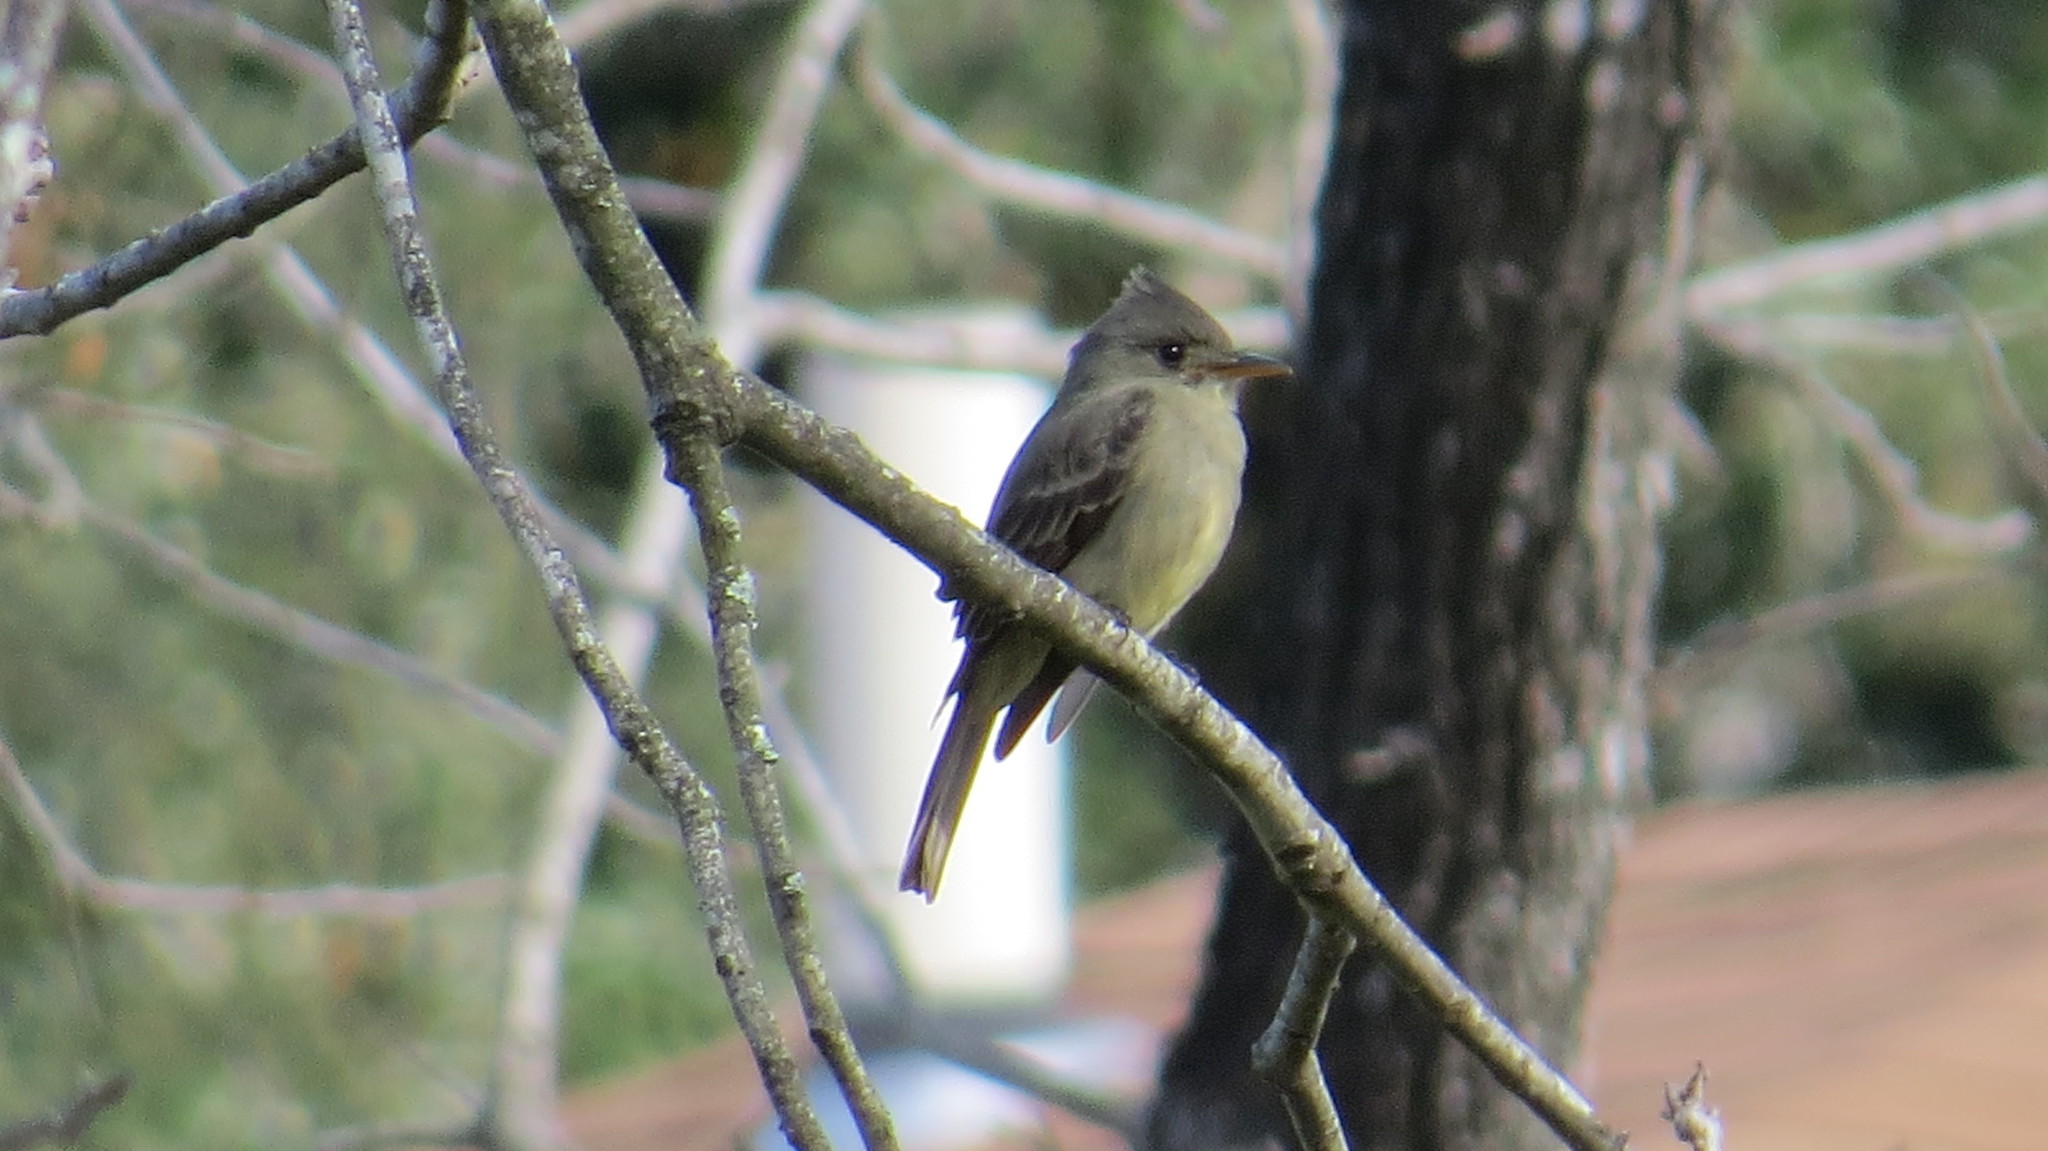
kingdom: Animalia
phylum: Chordata
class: Aves
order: Passeriformes
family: Tyrannidae
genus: Contopus
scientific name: Contopus pertinax
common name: Greater pewee
